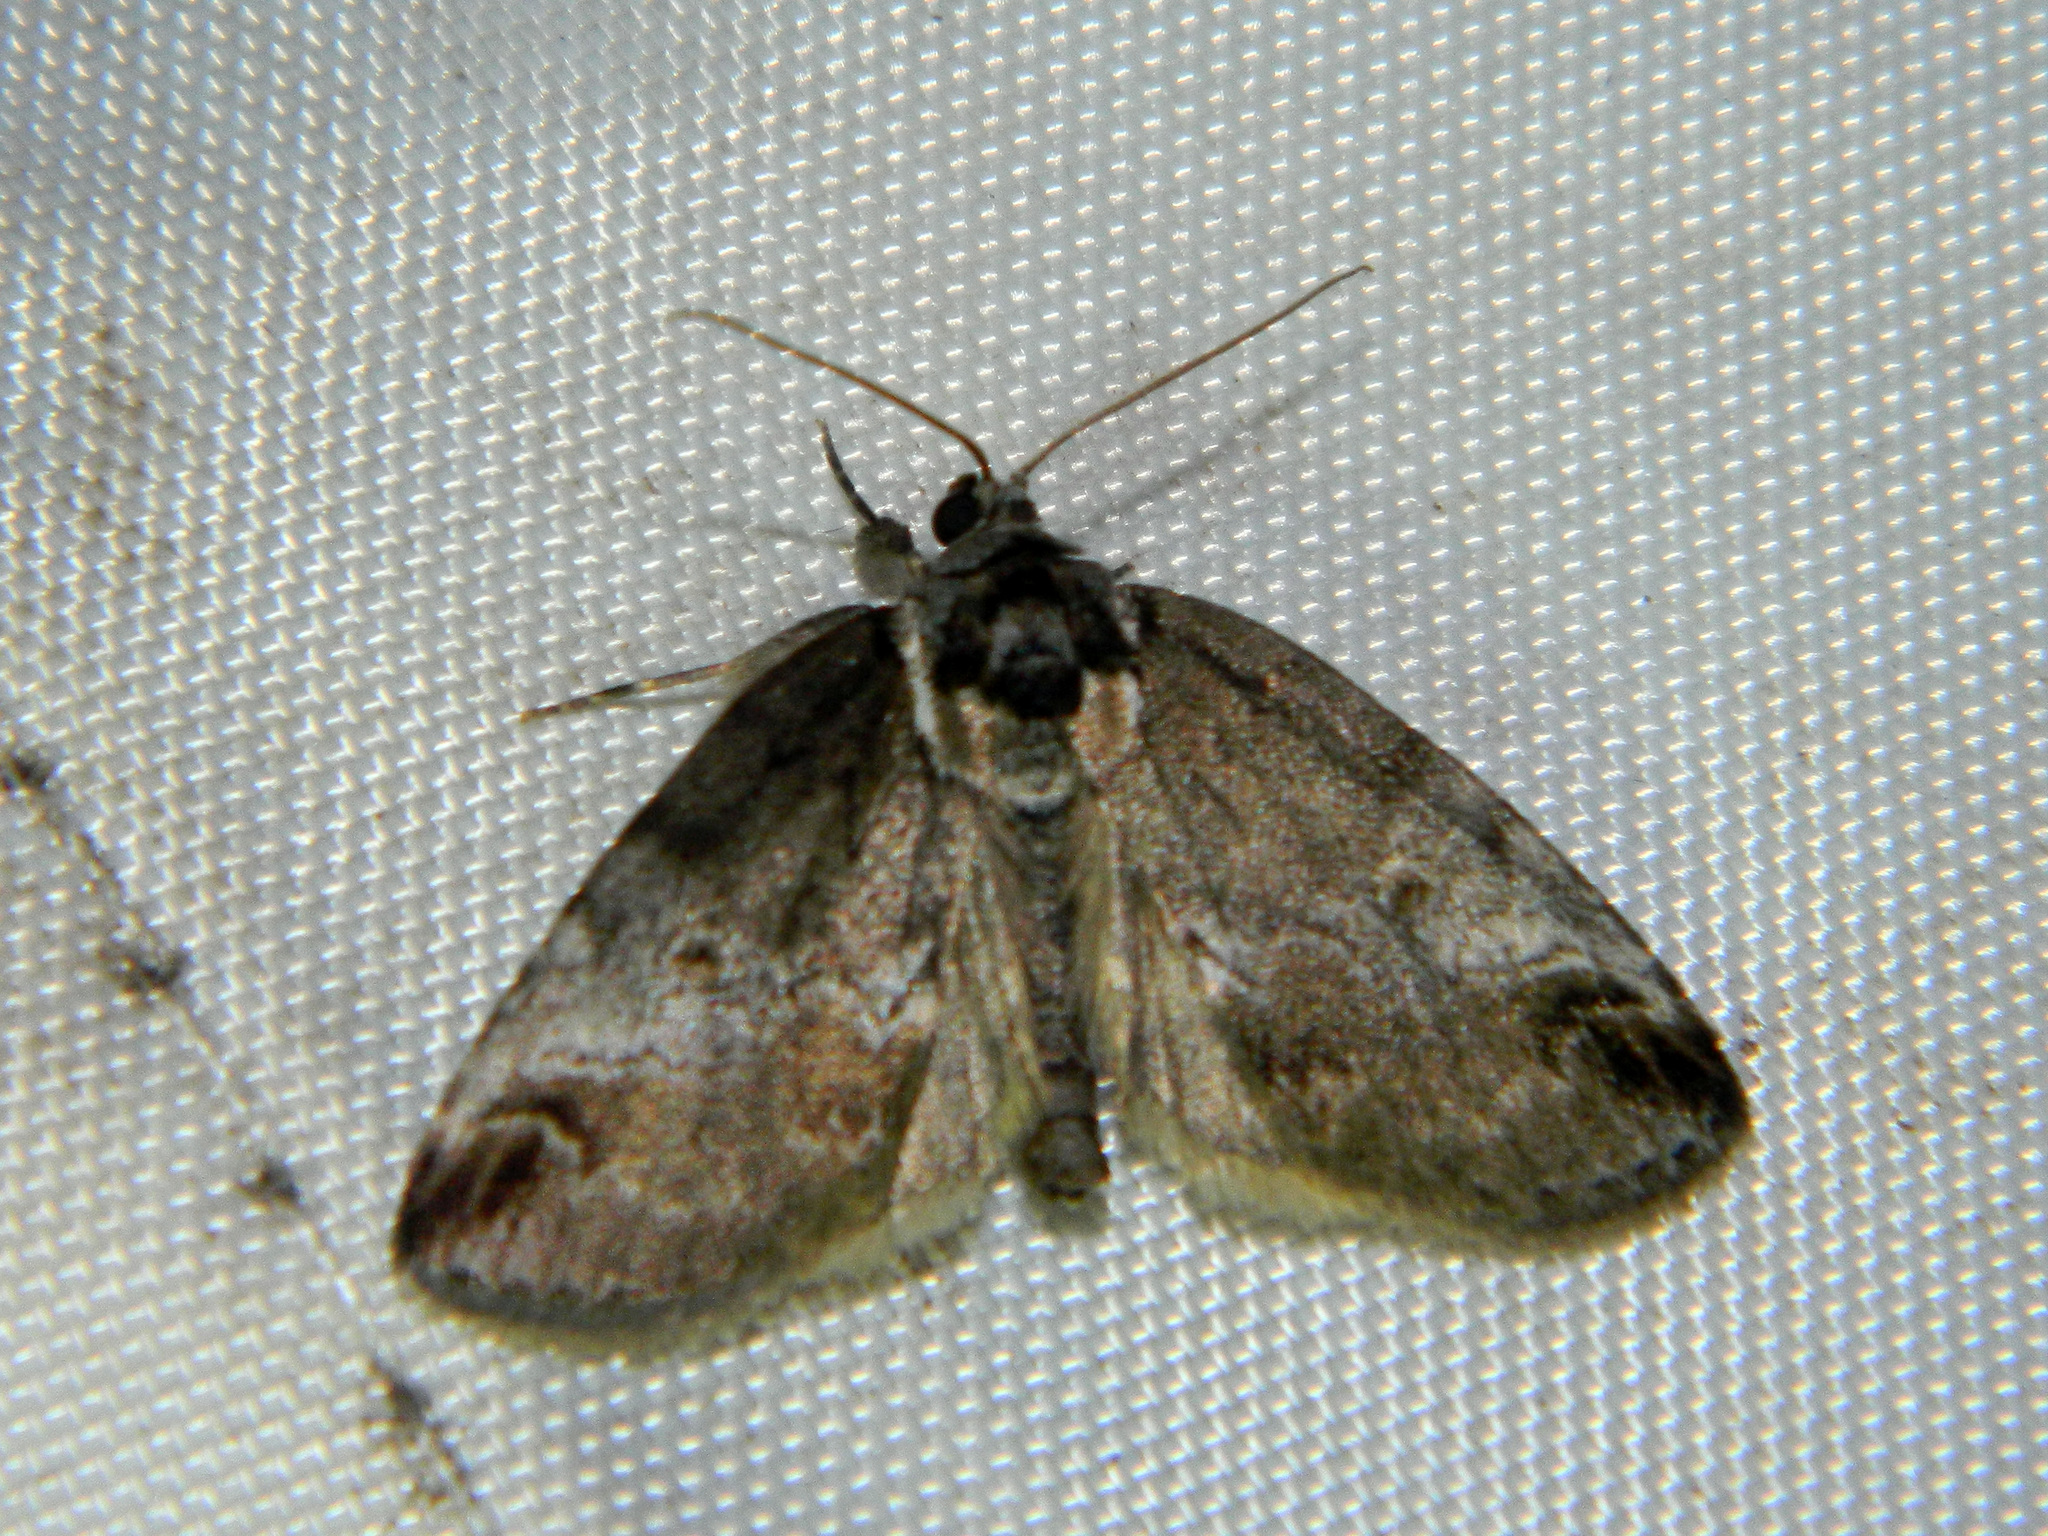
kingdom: Animalia
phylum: Arthropoda
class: Insecta
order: Lepidoptera
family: Nolidae
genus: Baileya
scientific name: Baileya ophthalmica
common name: Eyed baileya moth
